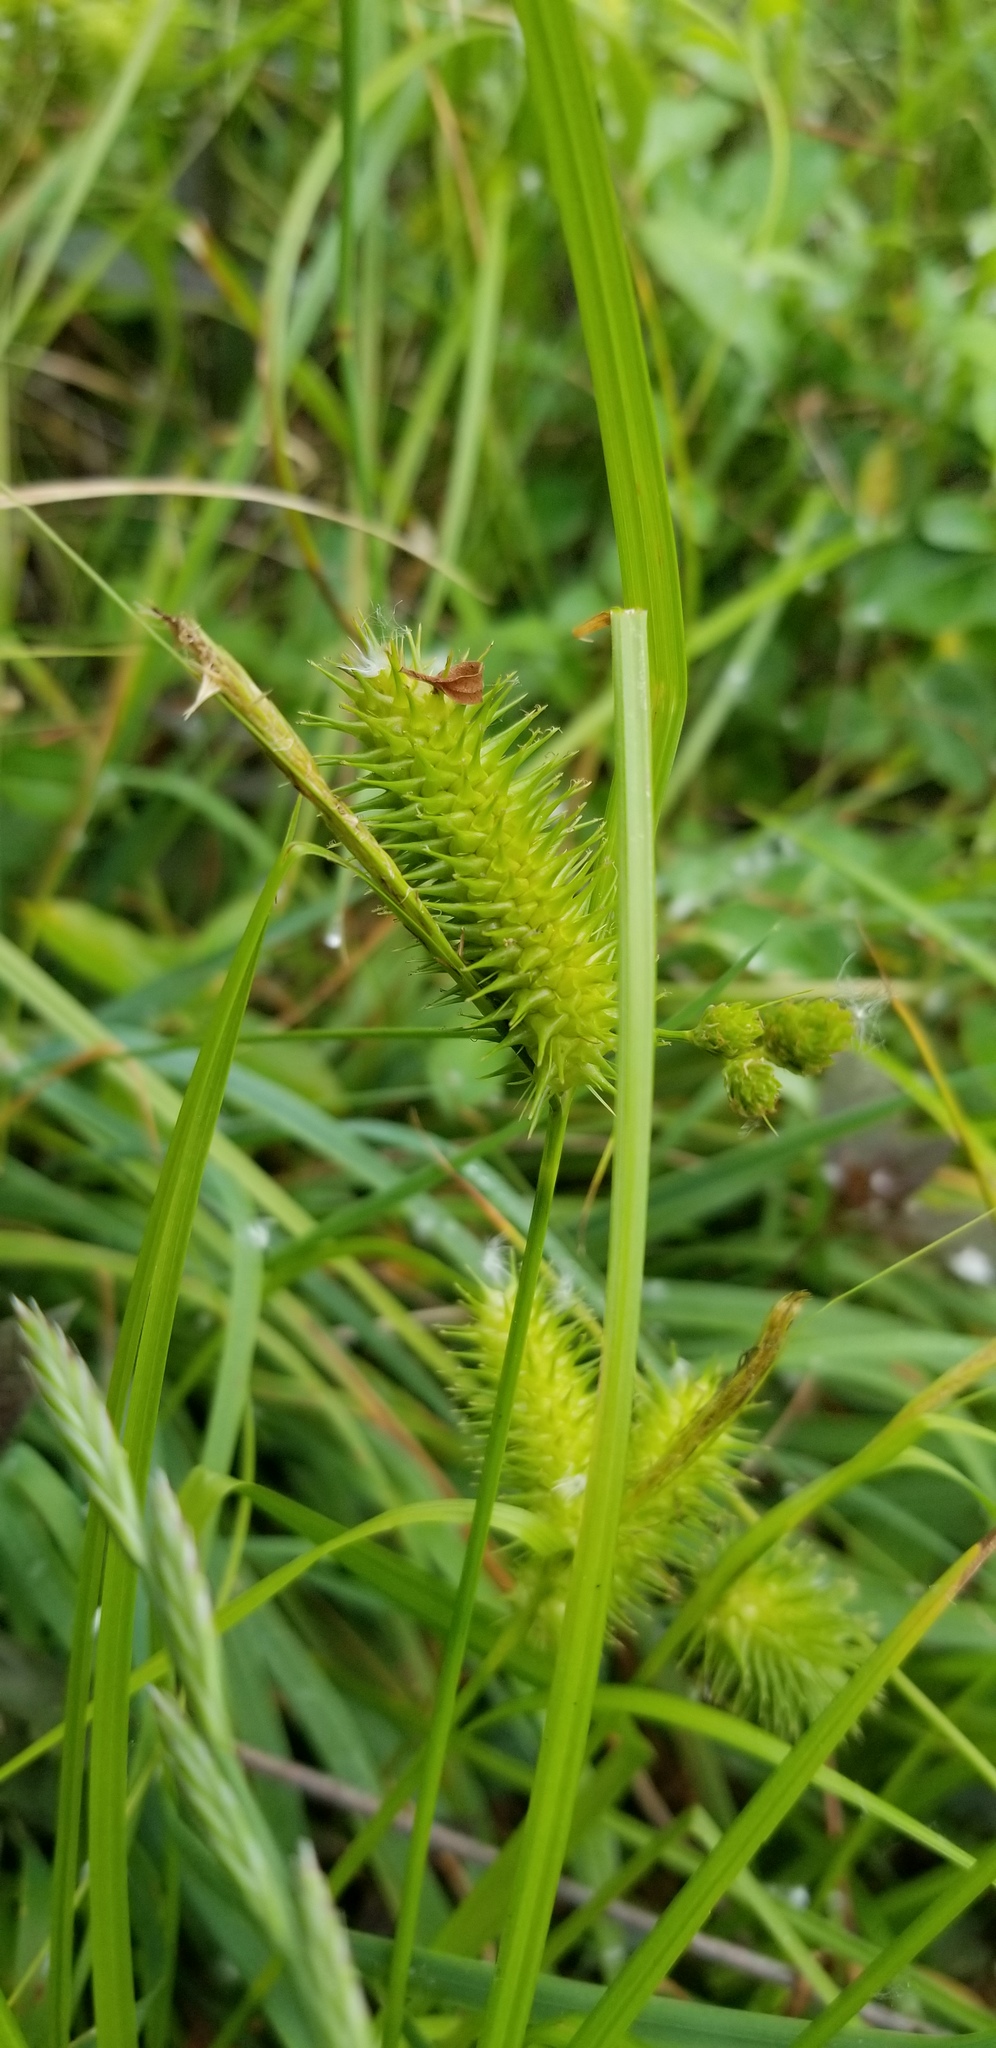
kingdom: Plantae
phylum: Tracheophyta
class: Liliopsida
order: Poales
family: Cyperaceae
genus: Carex
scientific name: Carex lurida
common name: Sallow sedge
